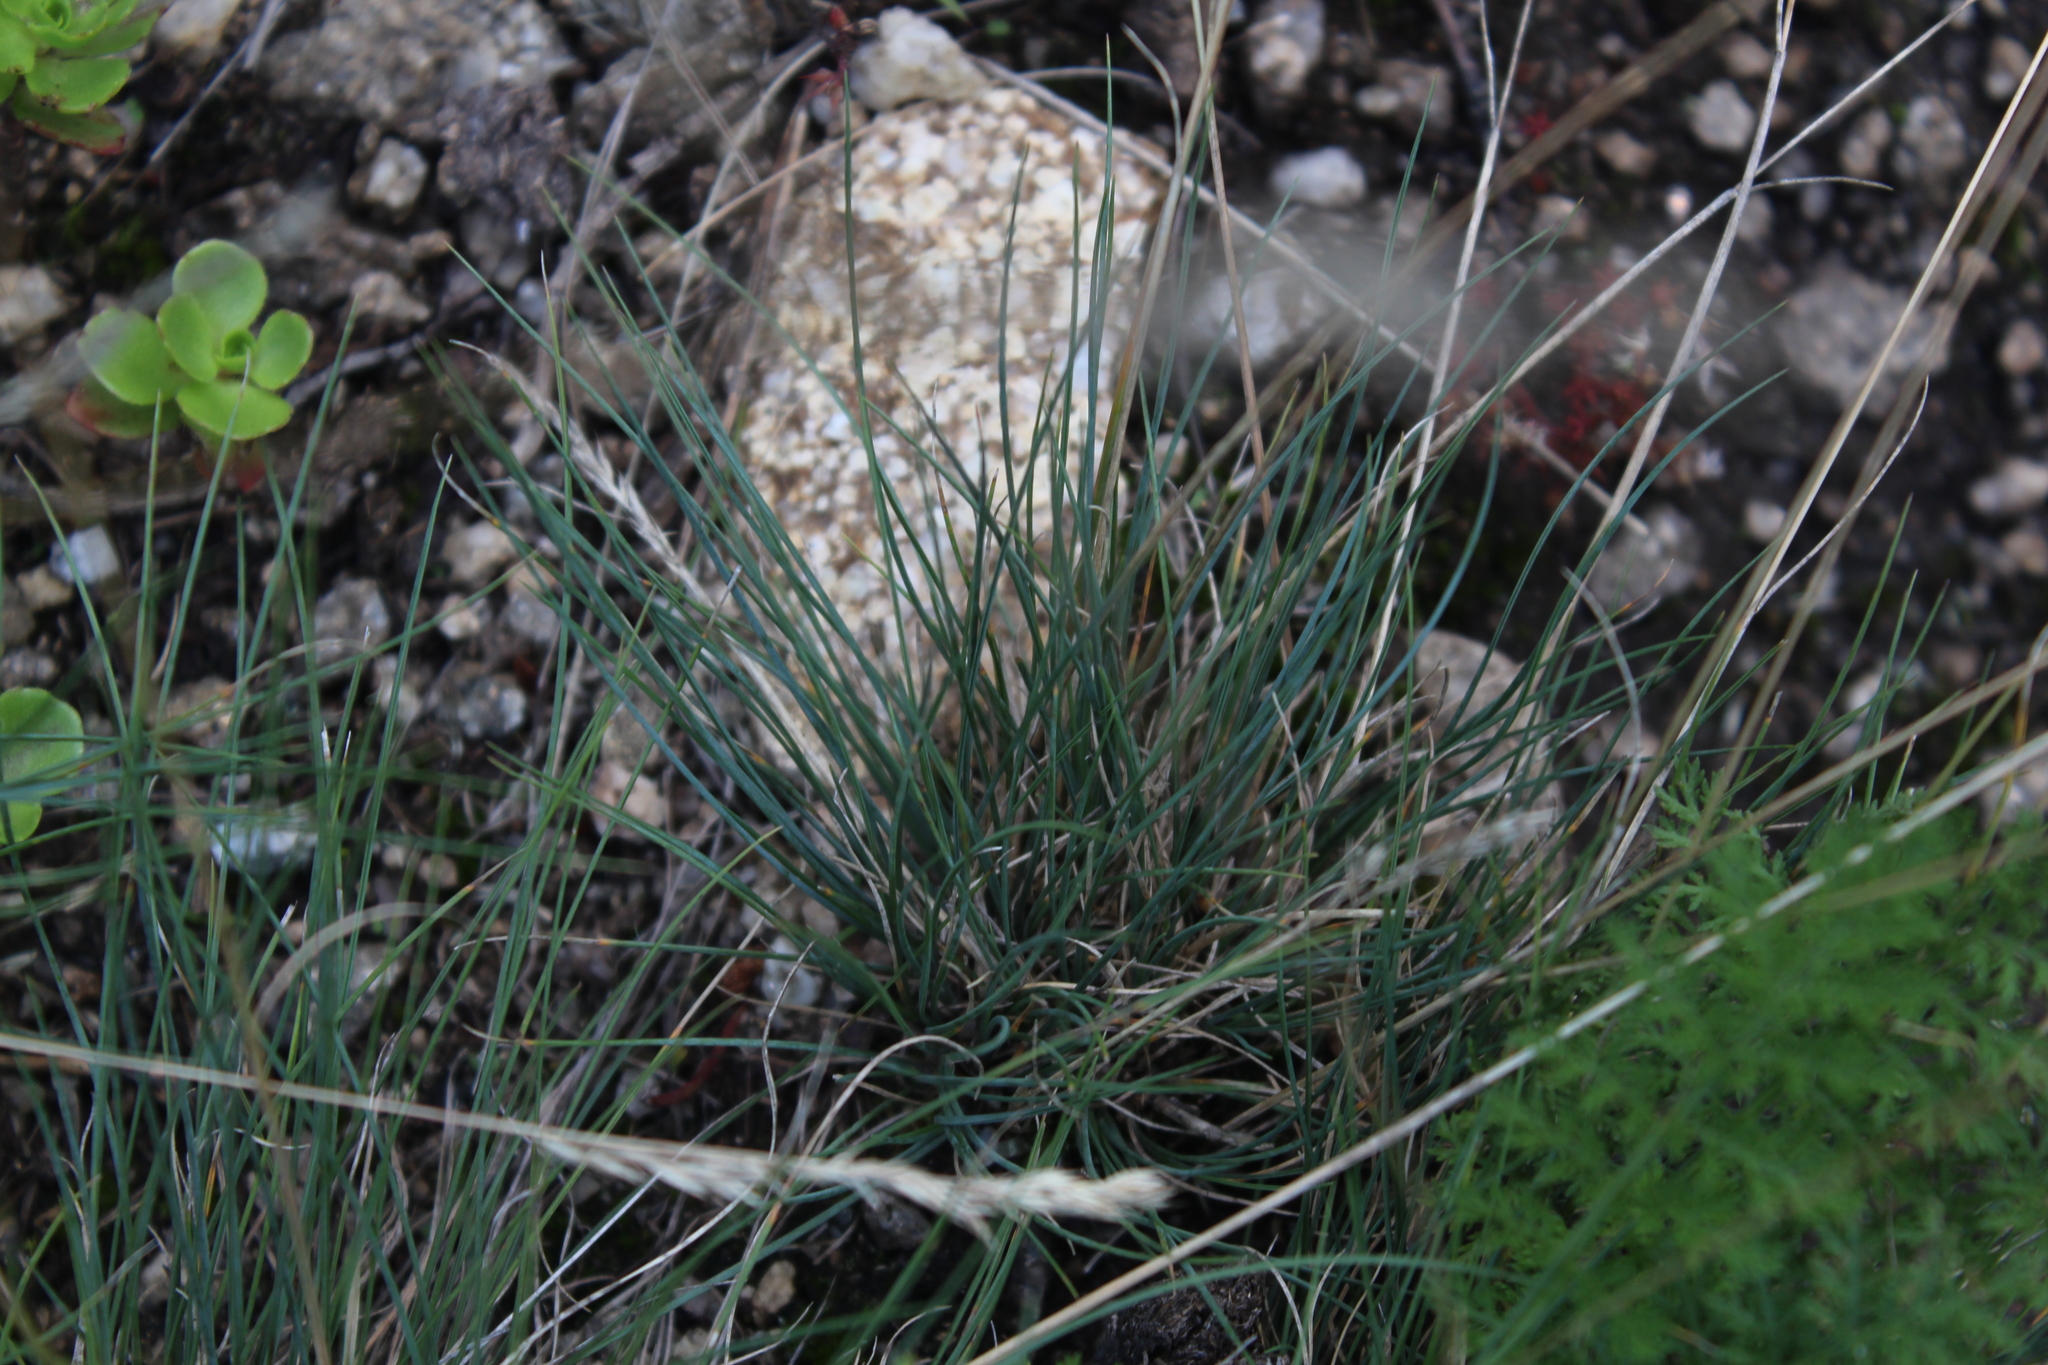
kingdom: Plantae
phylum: Tracheophyta
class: Liliopsida
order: Poales
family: Poaceae
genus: Festuca
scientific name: Festuca valesiaca
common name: Volga fescue
